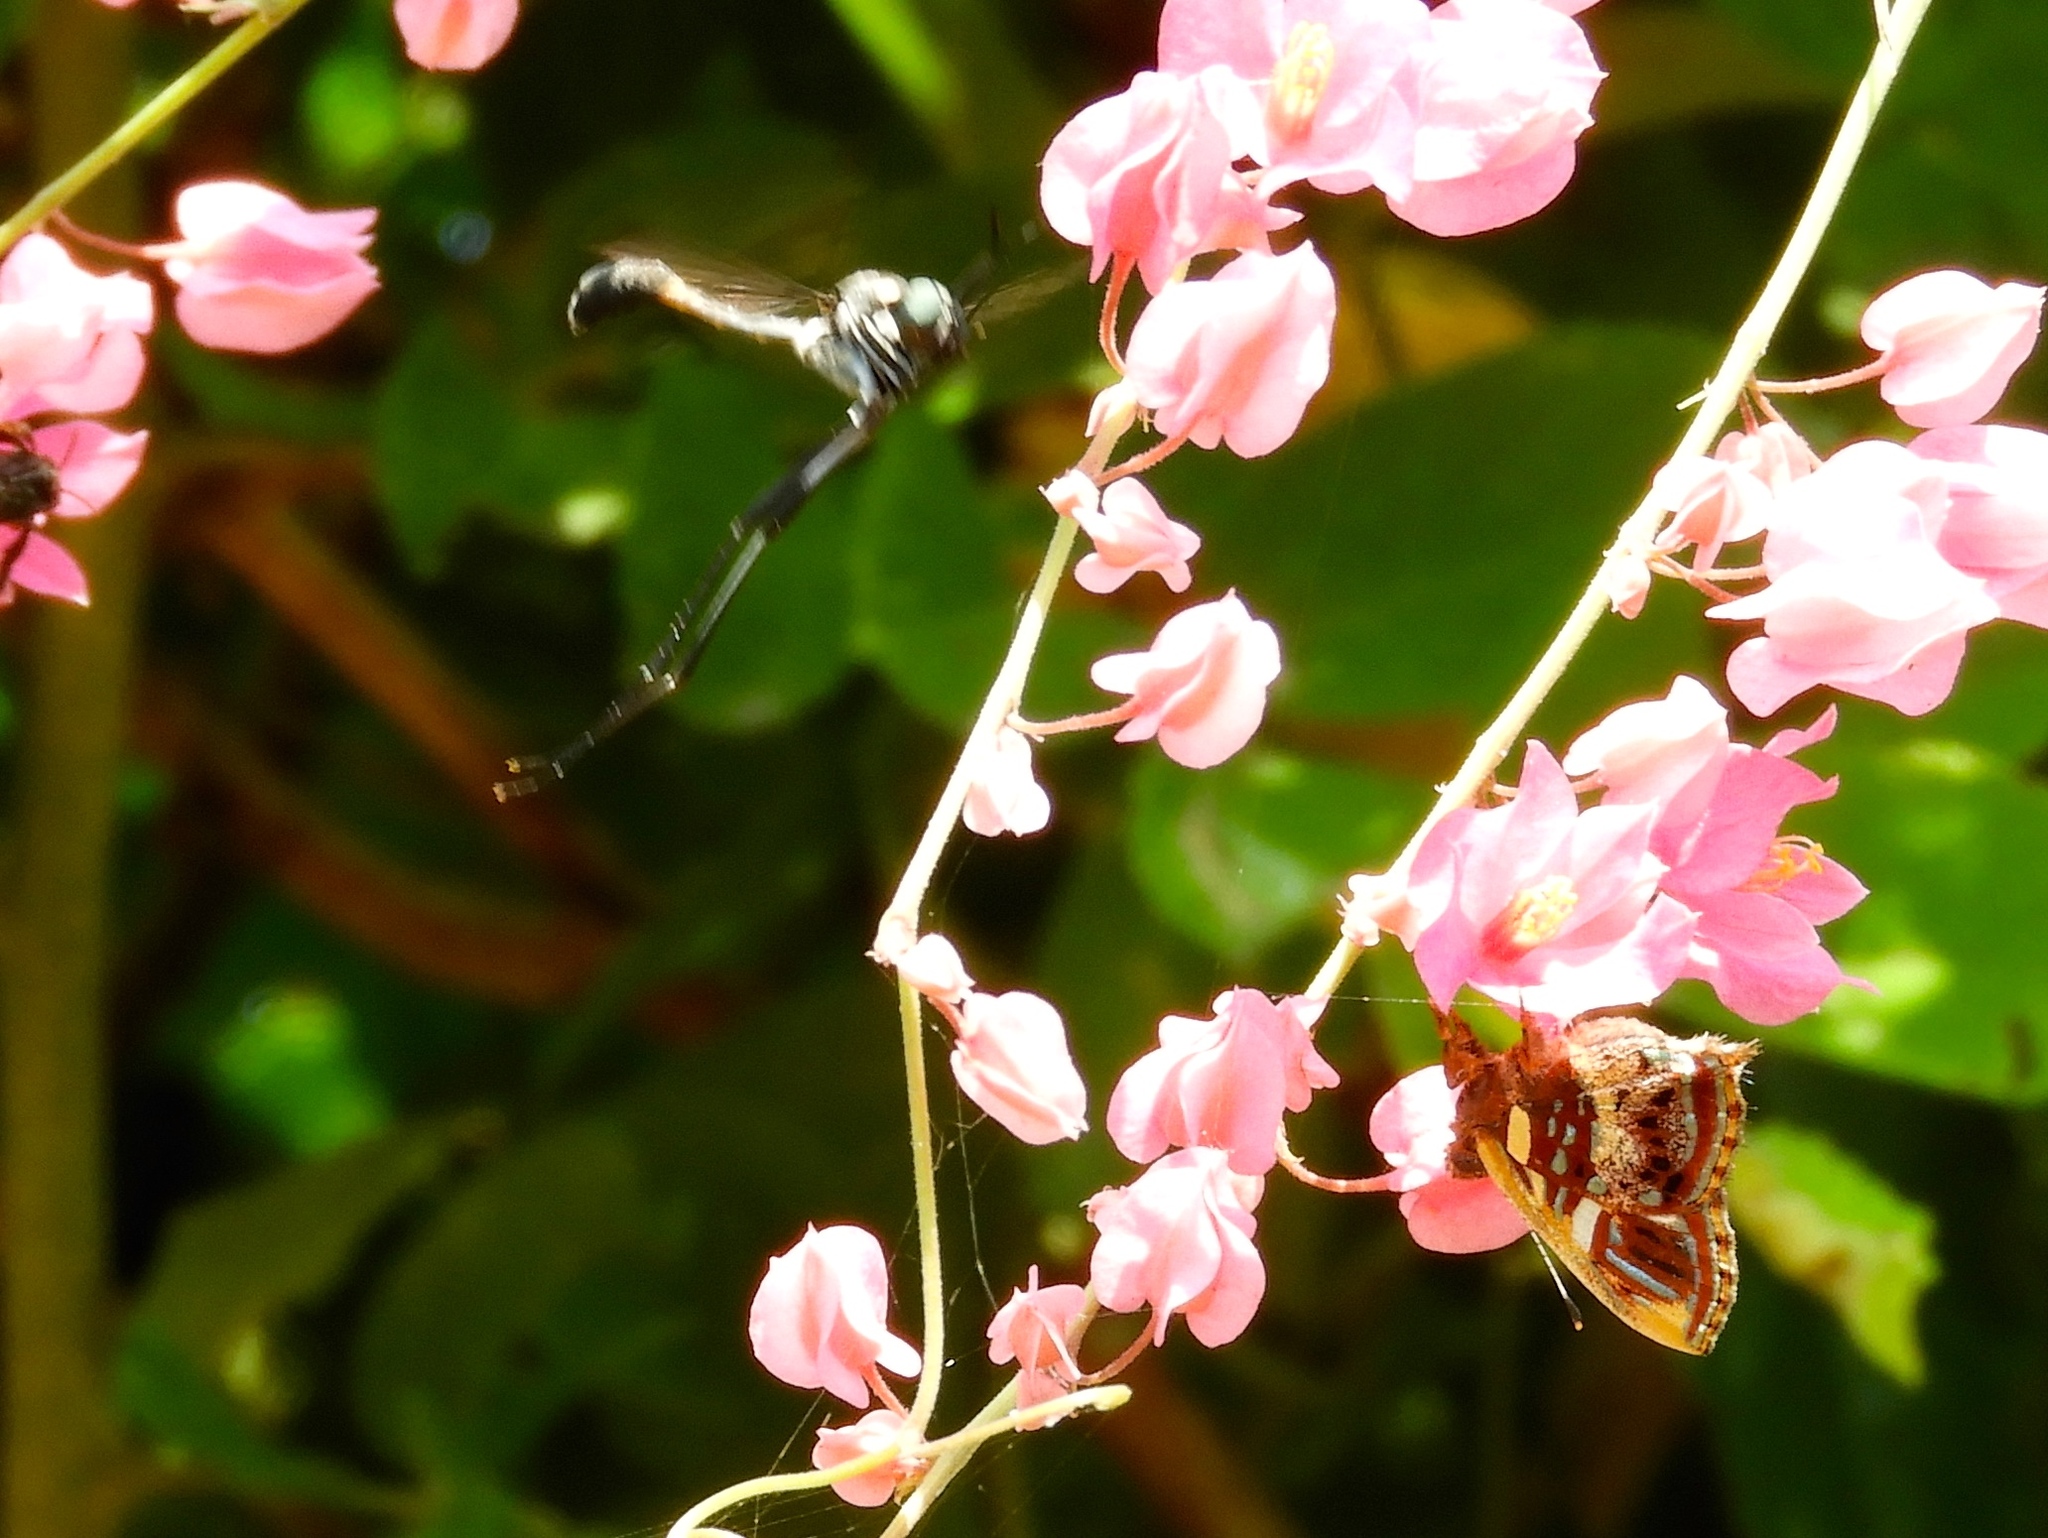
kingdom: Animalia
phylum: Arthropoda
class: Insecta
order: Diptera
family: Bombyliidae
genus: Systropus
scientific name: Systropus
